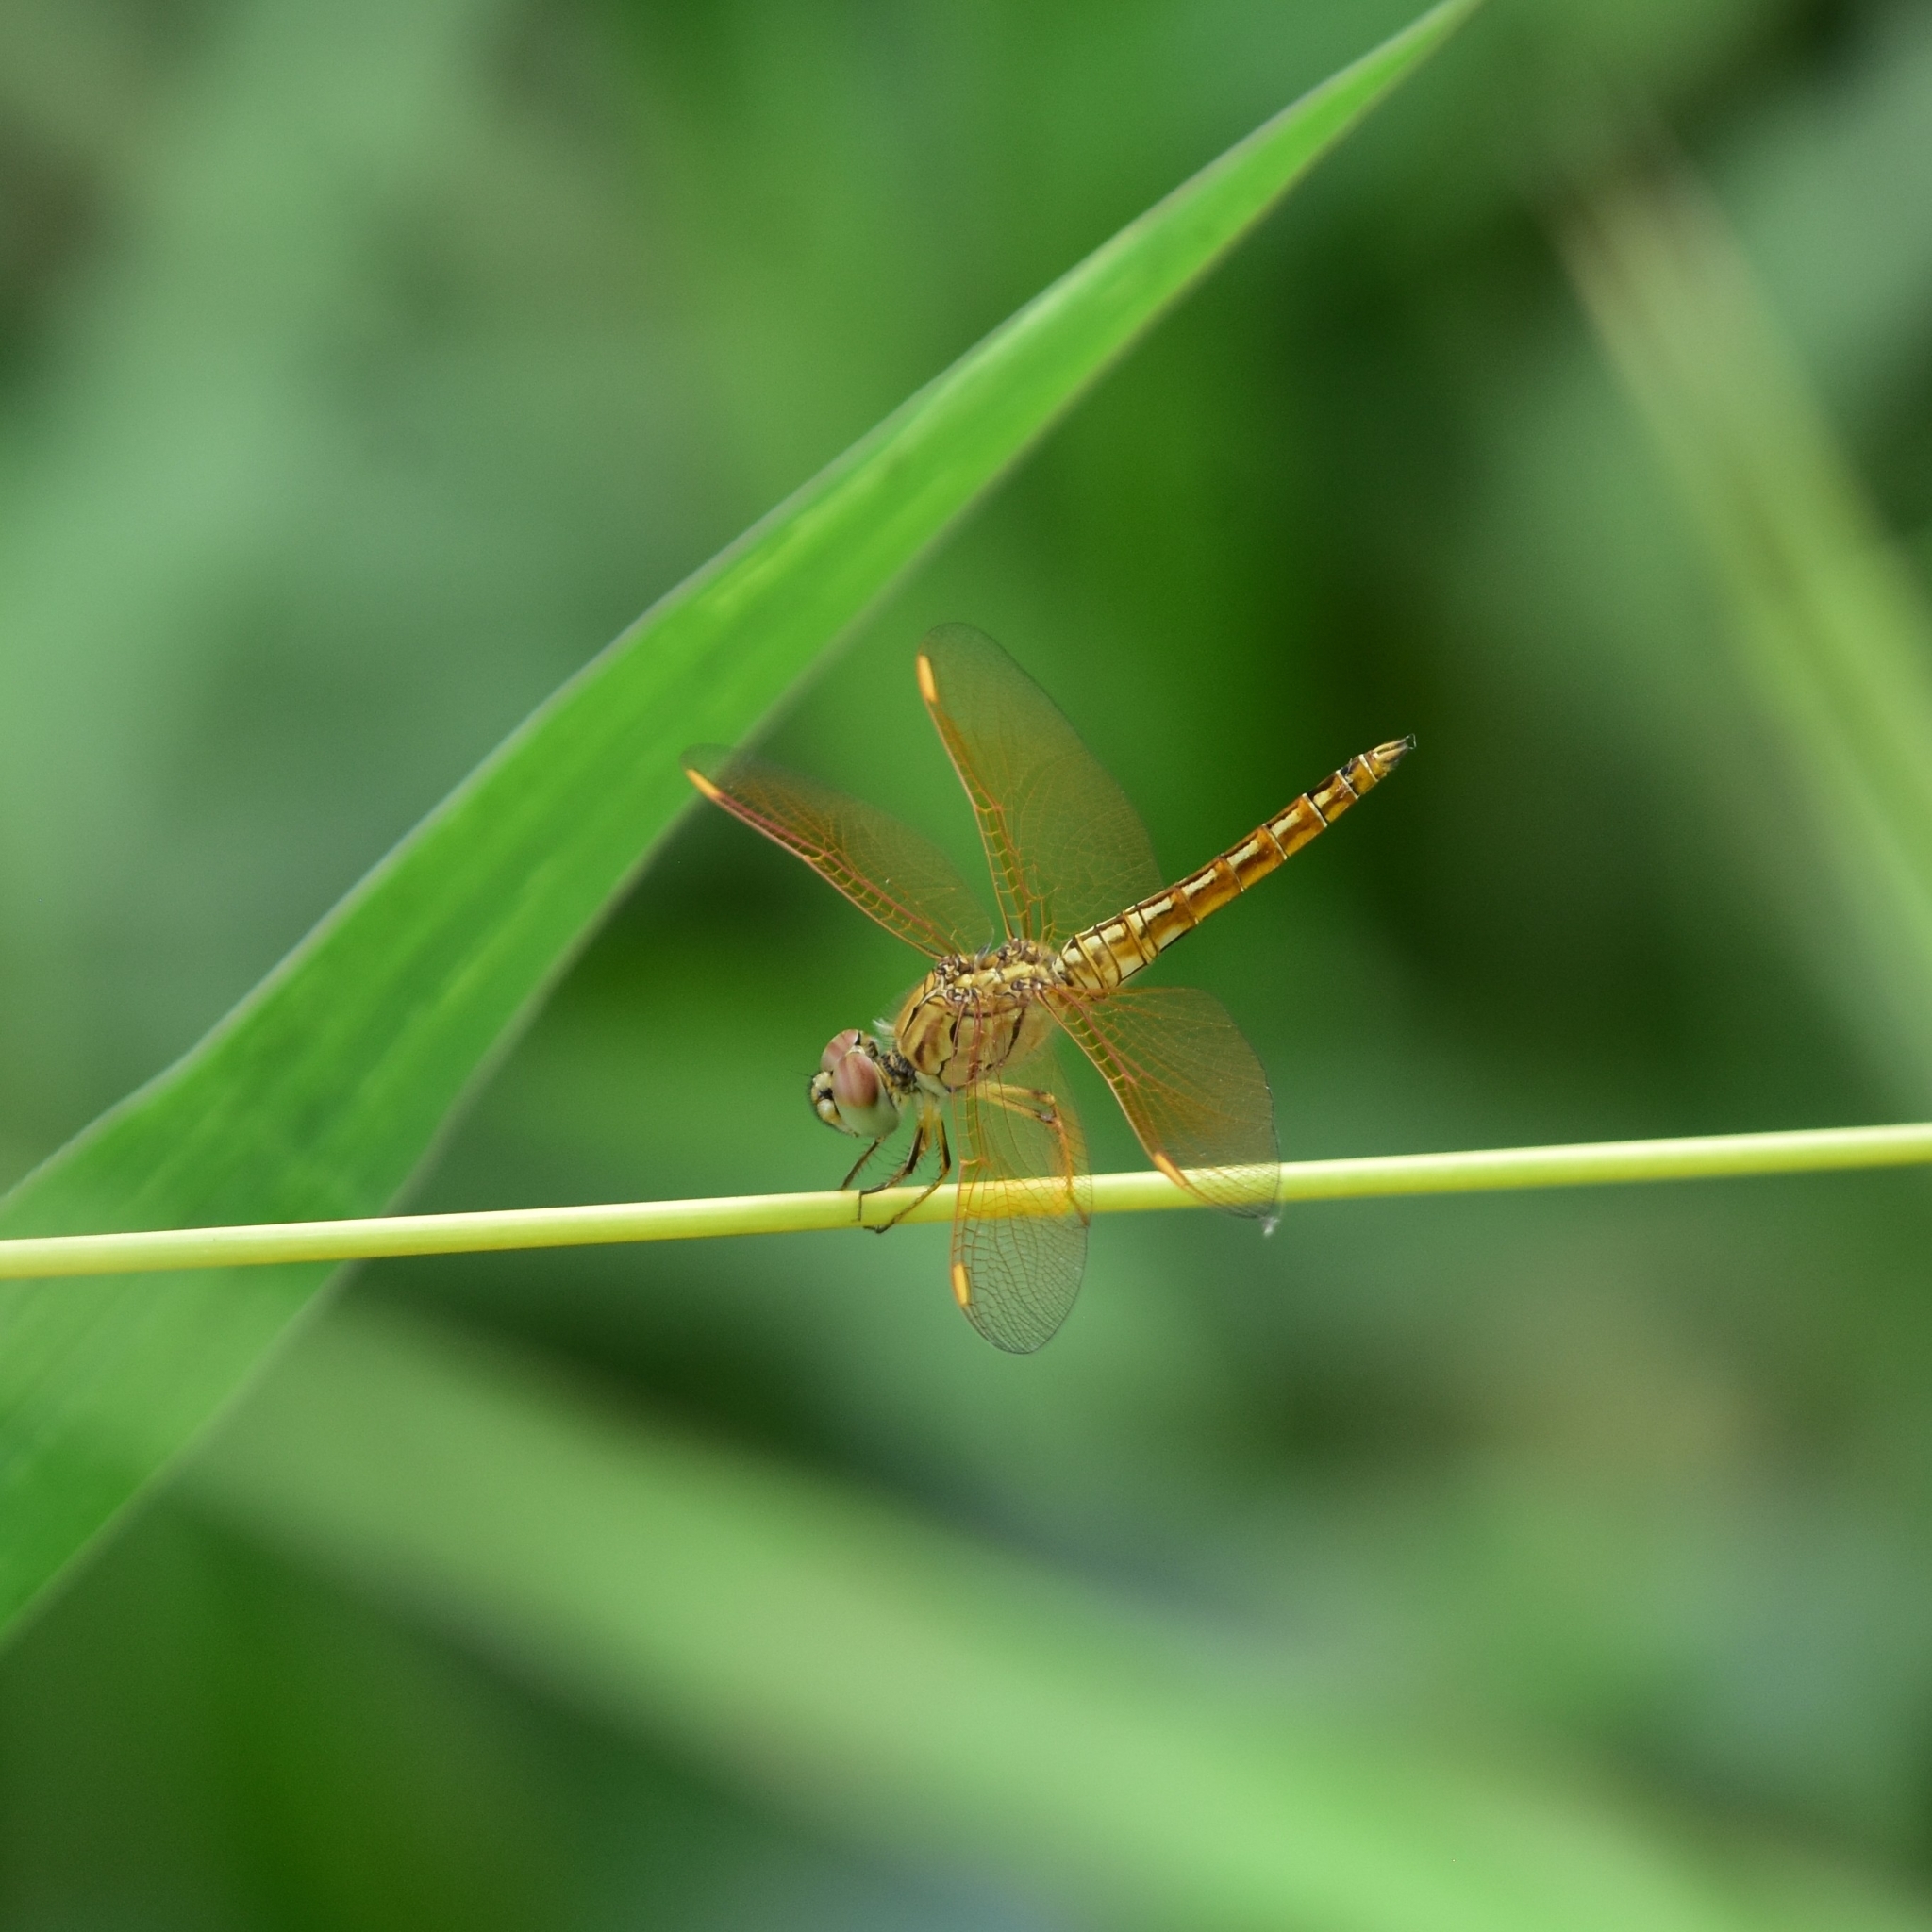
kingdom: Animalia
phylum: Arthropoda
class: Insecta
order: Odonata
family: Libellulidae
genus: Brachythemis
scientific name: Brachythemis contaminata
